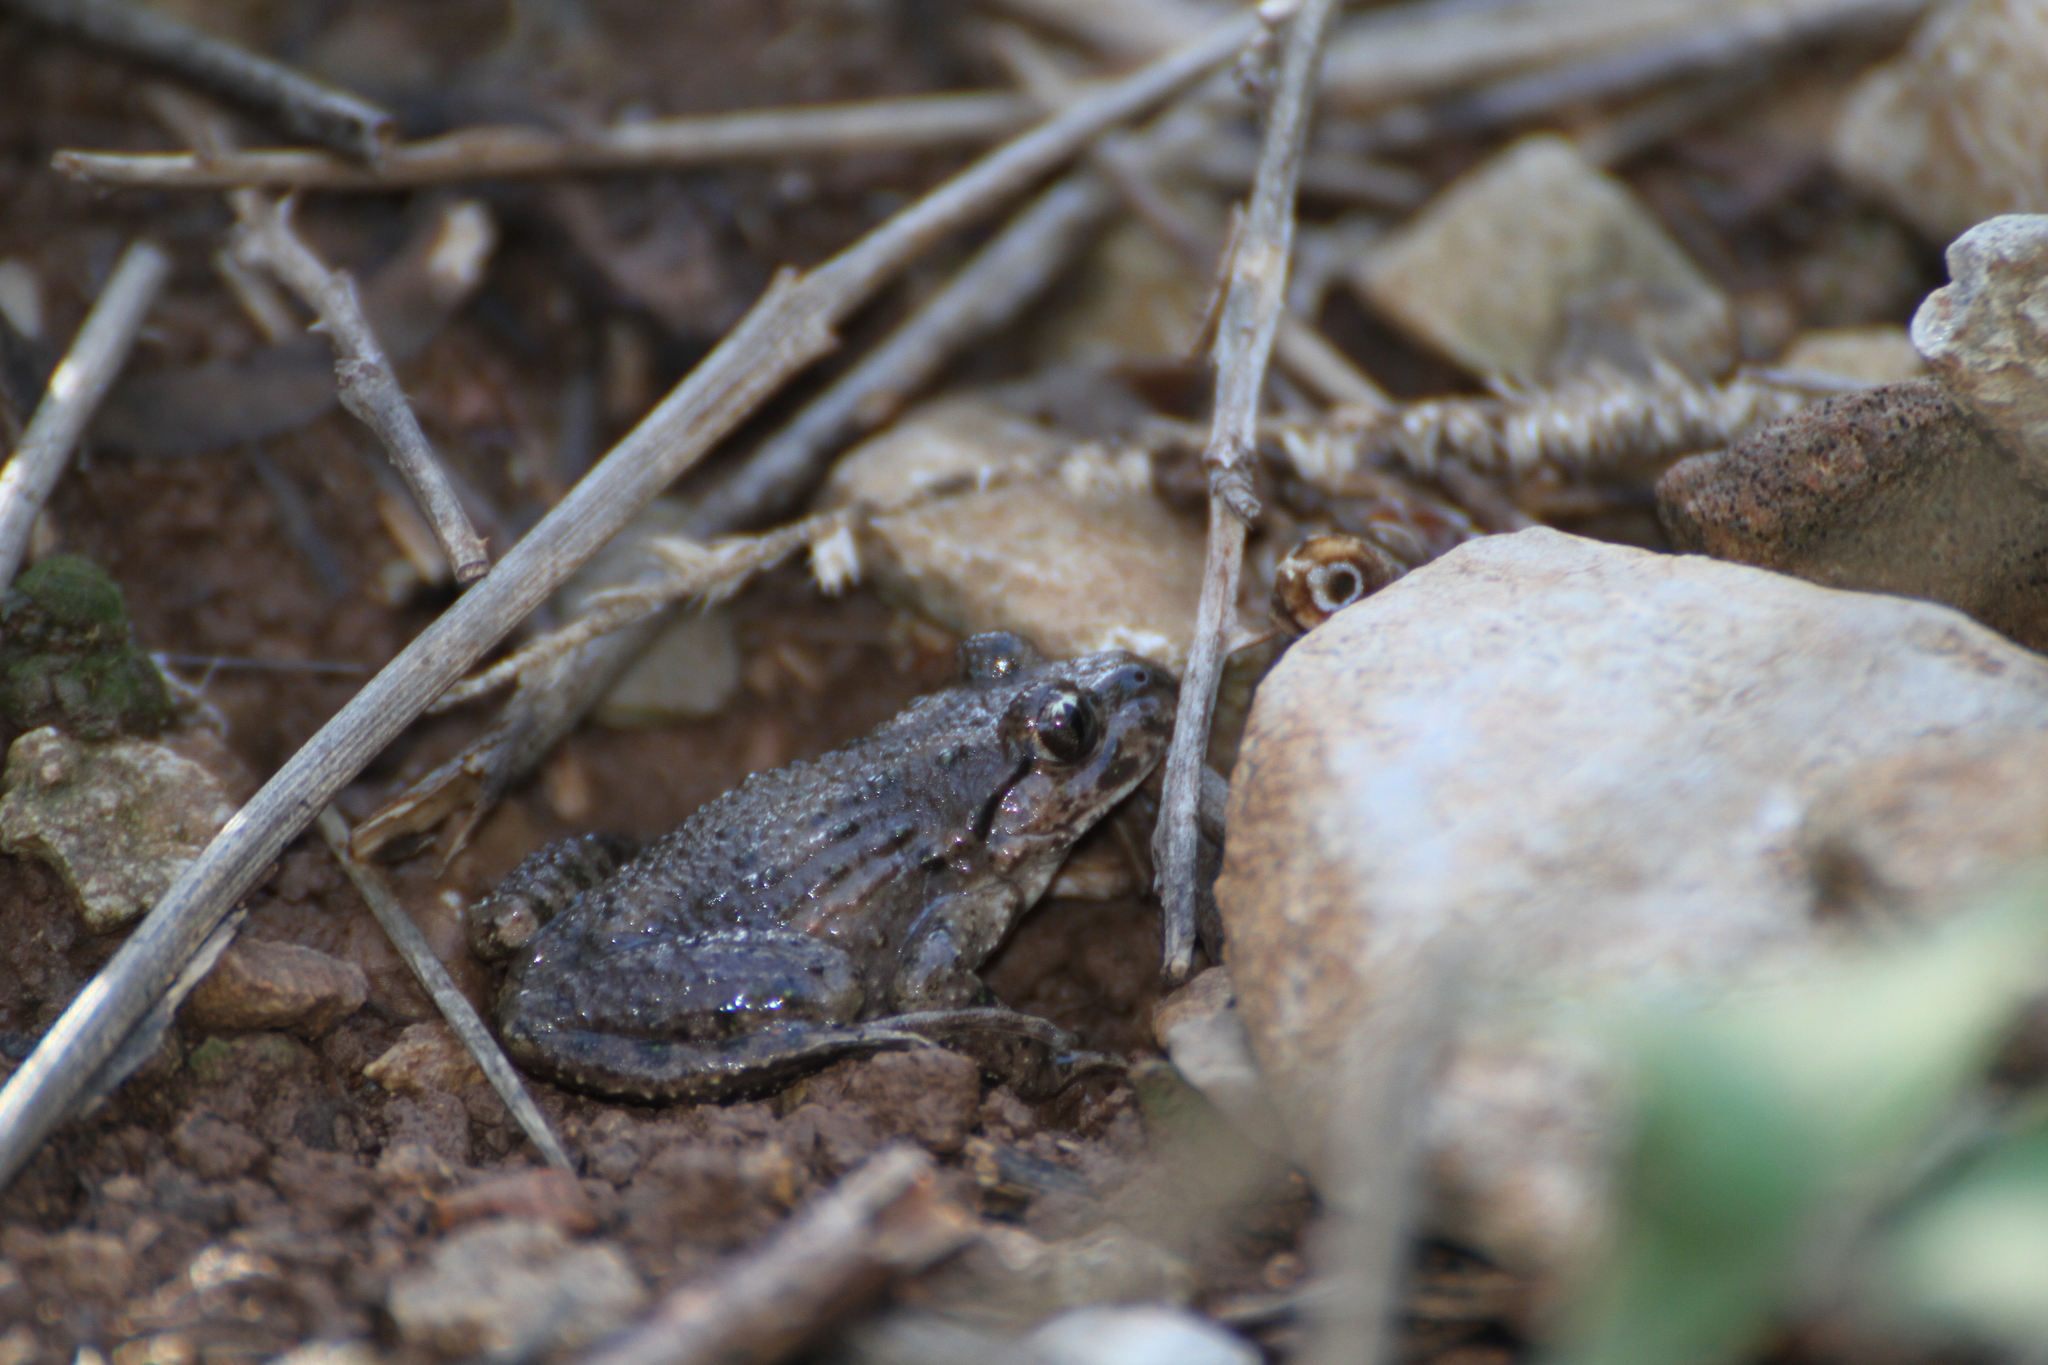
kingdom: Animalia
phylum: Chordata
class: Amphibia
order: Anura
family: Pelodytidae
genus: Pelodytes
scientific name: Pelodytes punctatus
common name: Parsley frog
